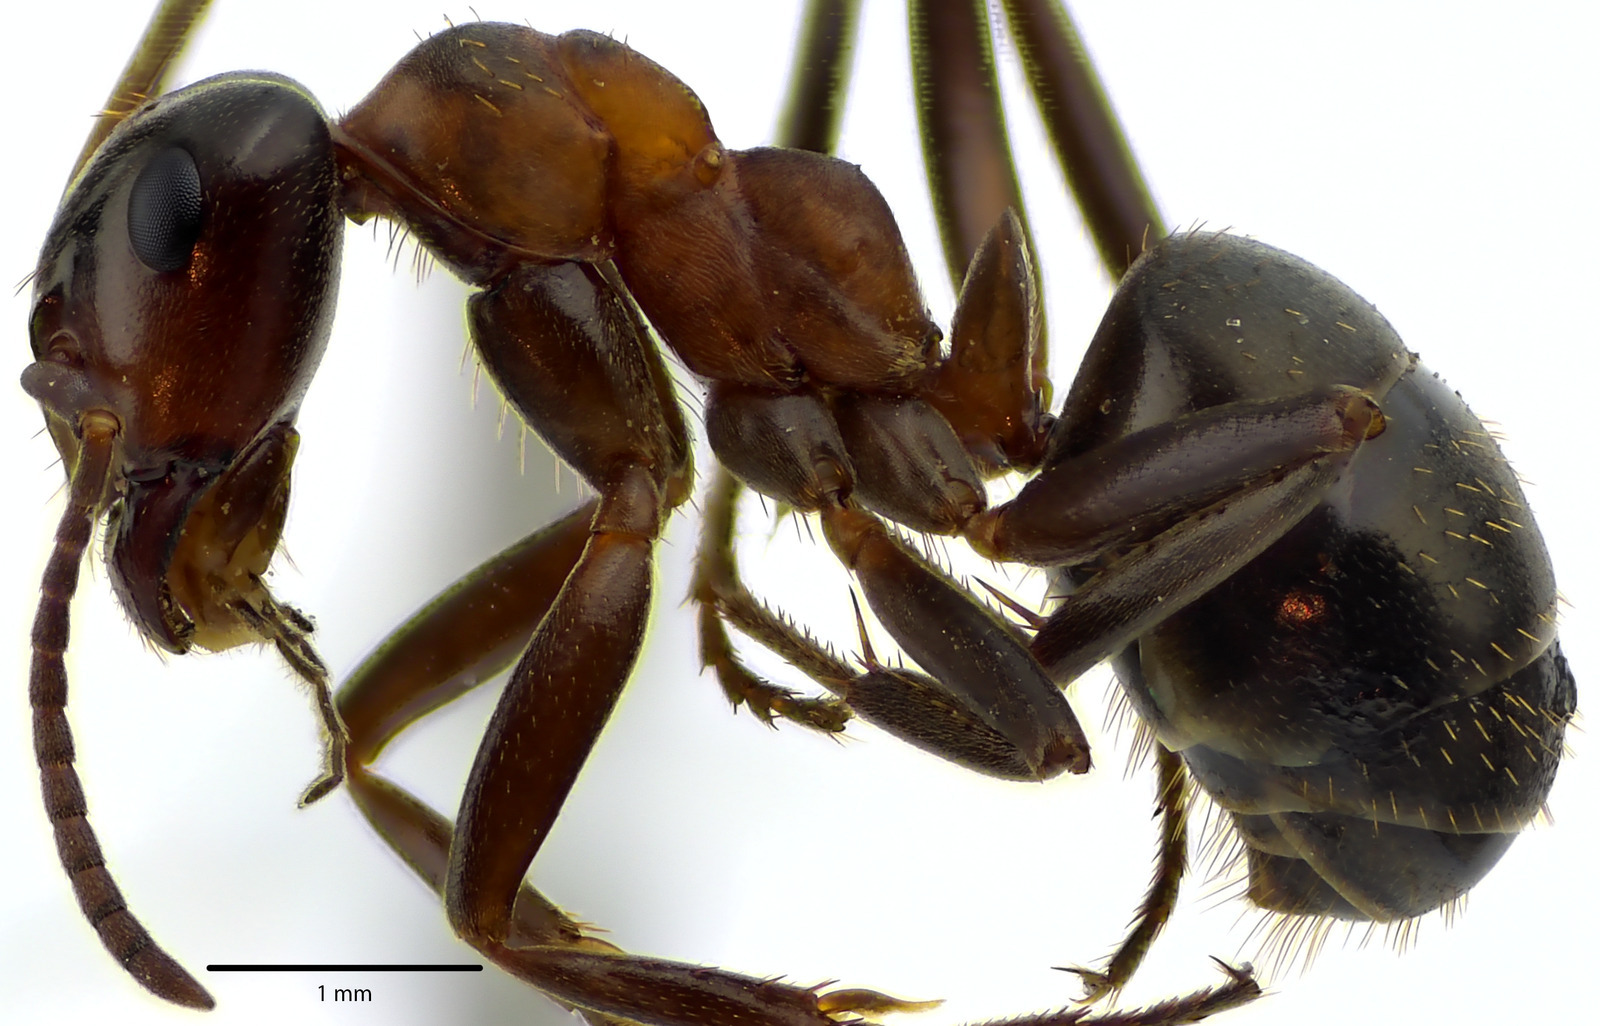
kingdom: Animalia
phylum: Arthropoda
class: Insecta
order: Hymenoptera
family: Formicidae
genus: Formica
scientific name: Formica ulkei
